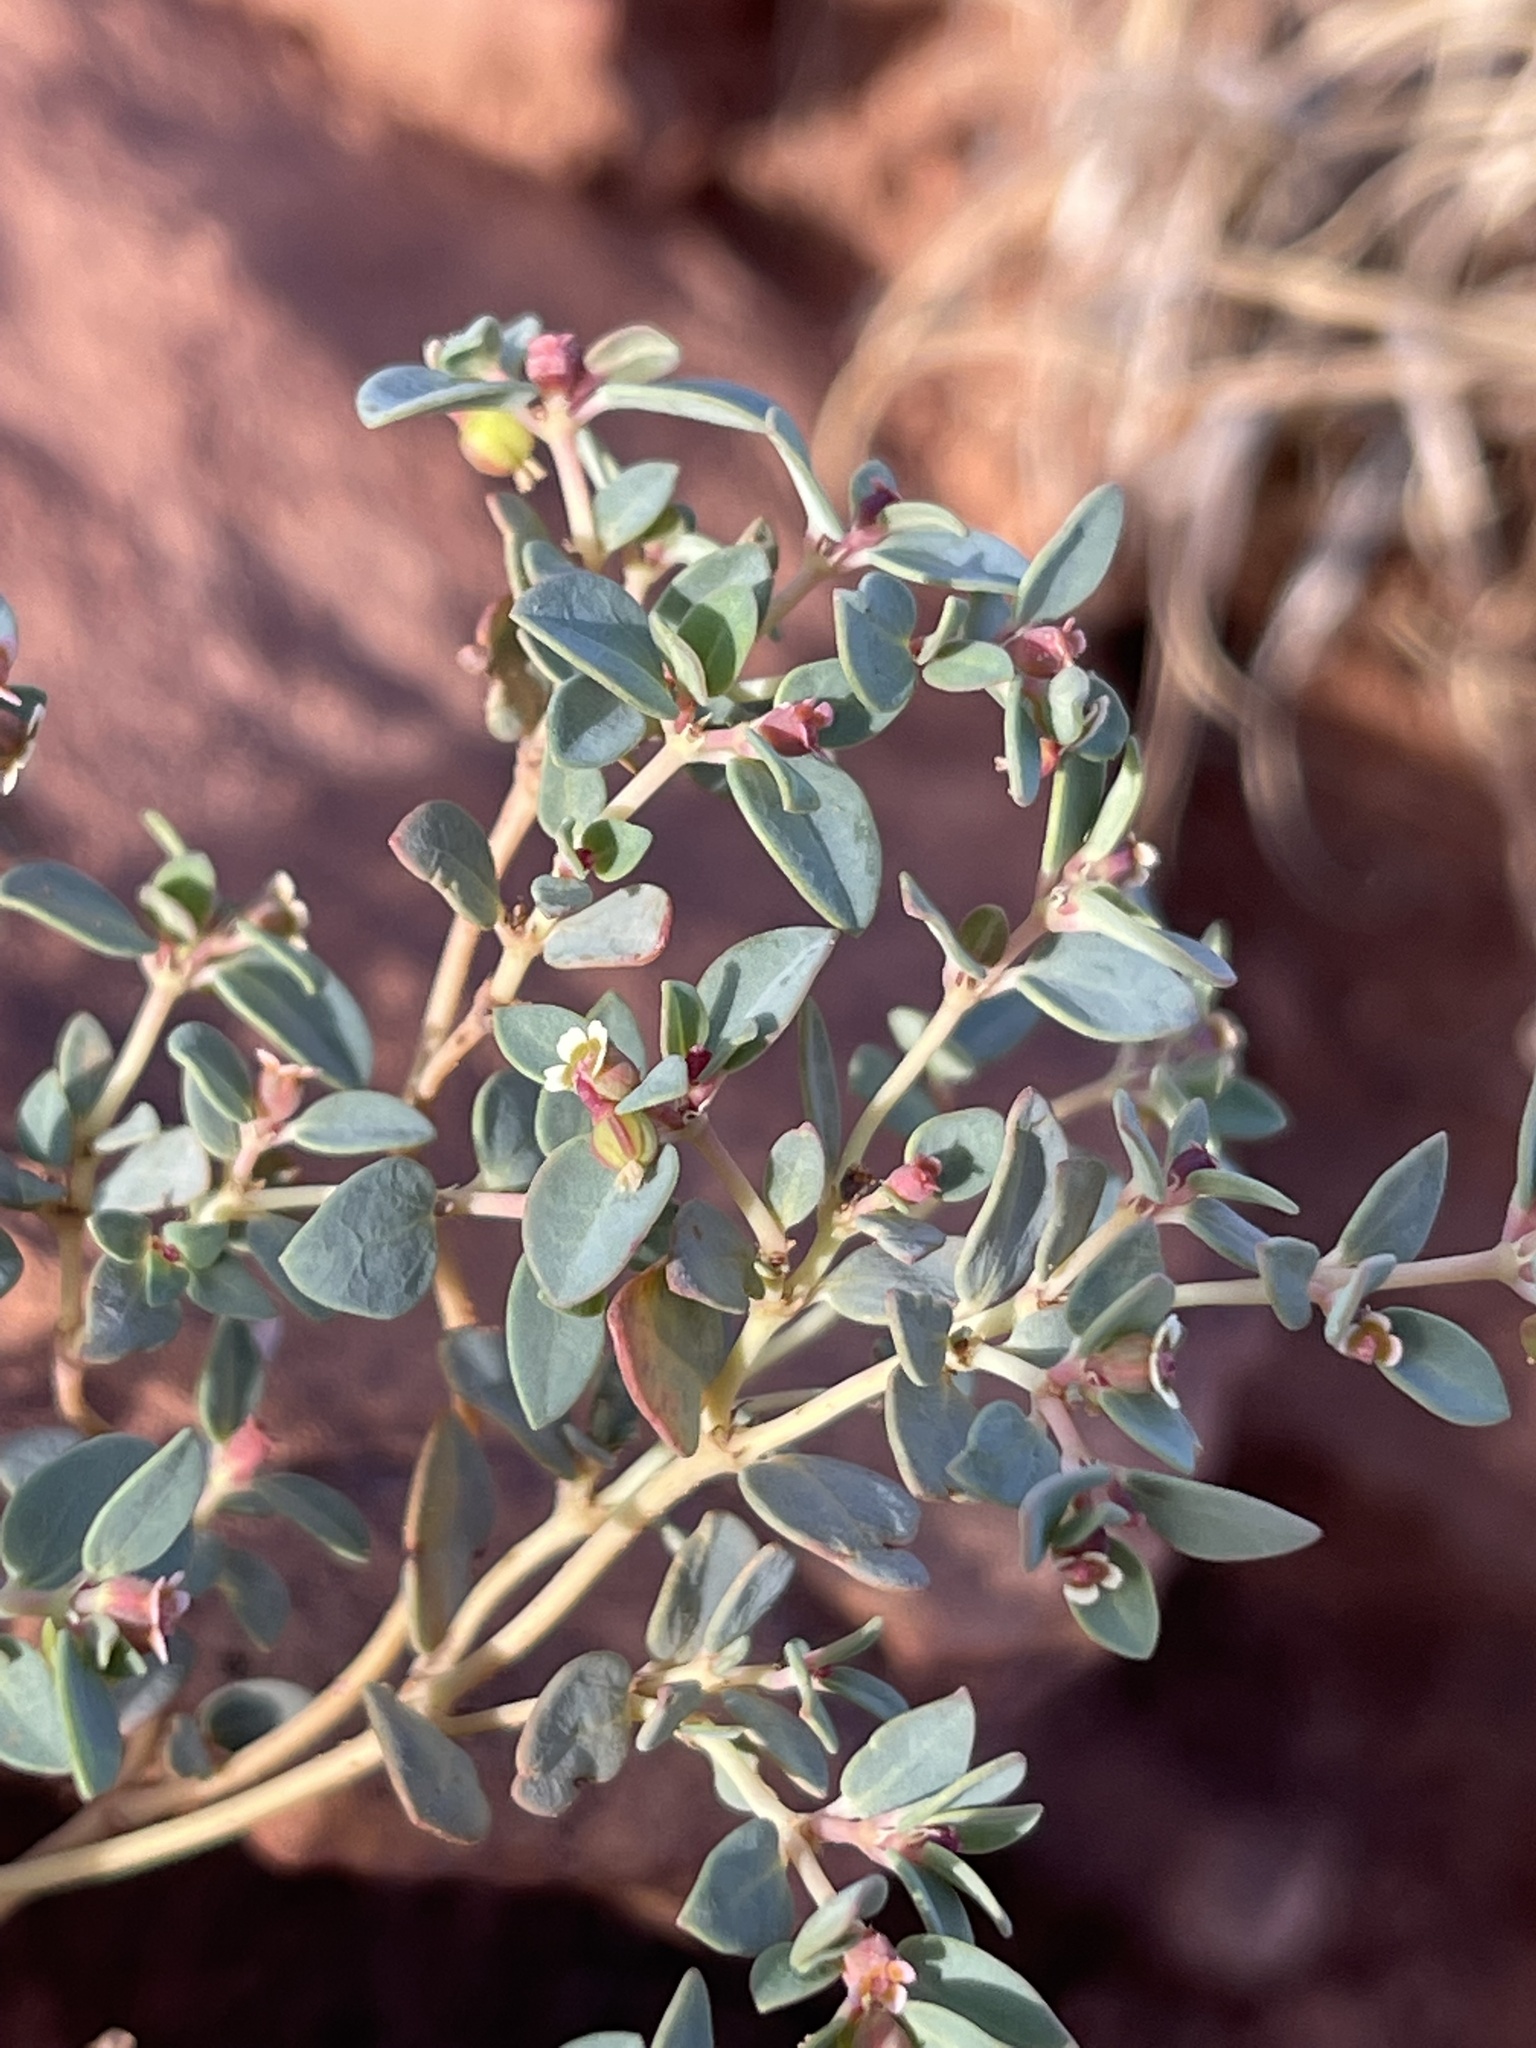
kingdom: Plantae
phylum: Tracheophyta
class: Magnoliopsida
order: Malpighiales
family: Euphorbiaceae
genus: Euphorbia
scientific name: Euphorbia fendleri
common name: Fendler's euphorbia
